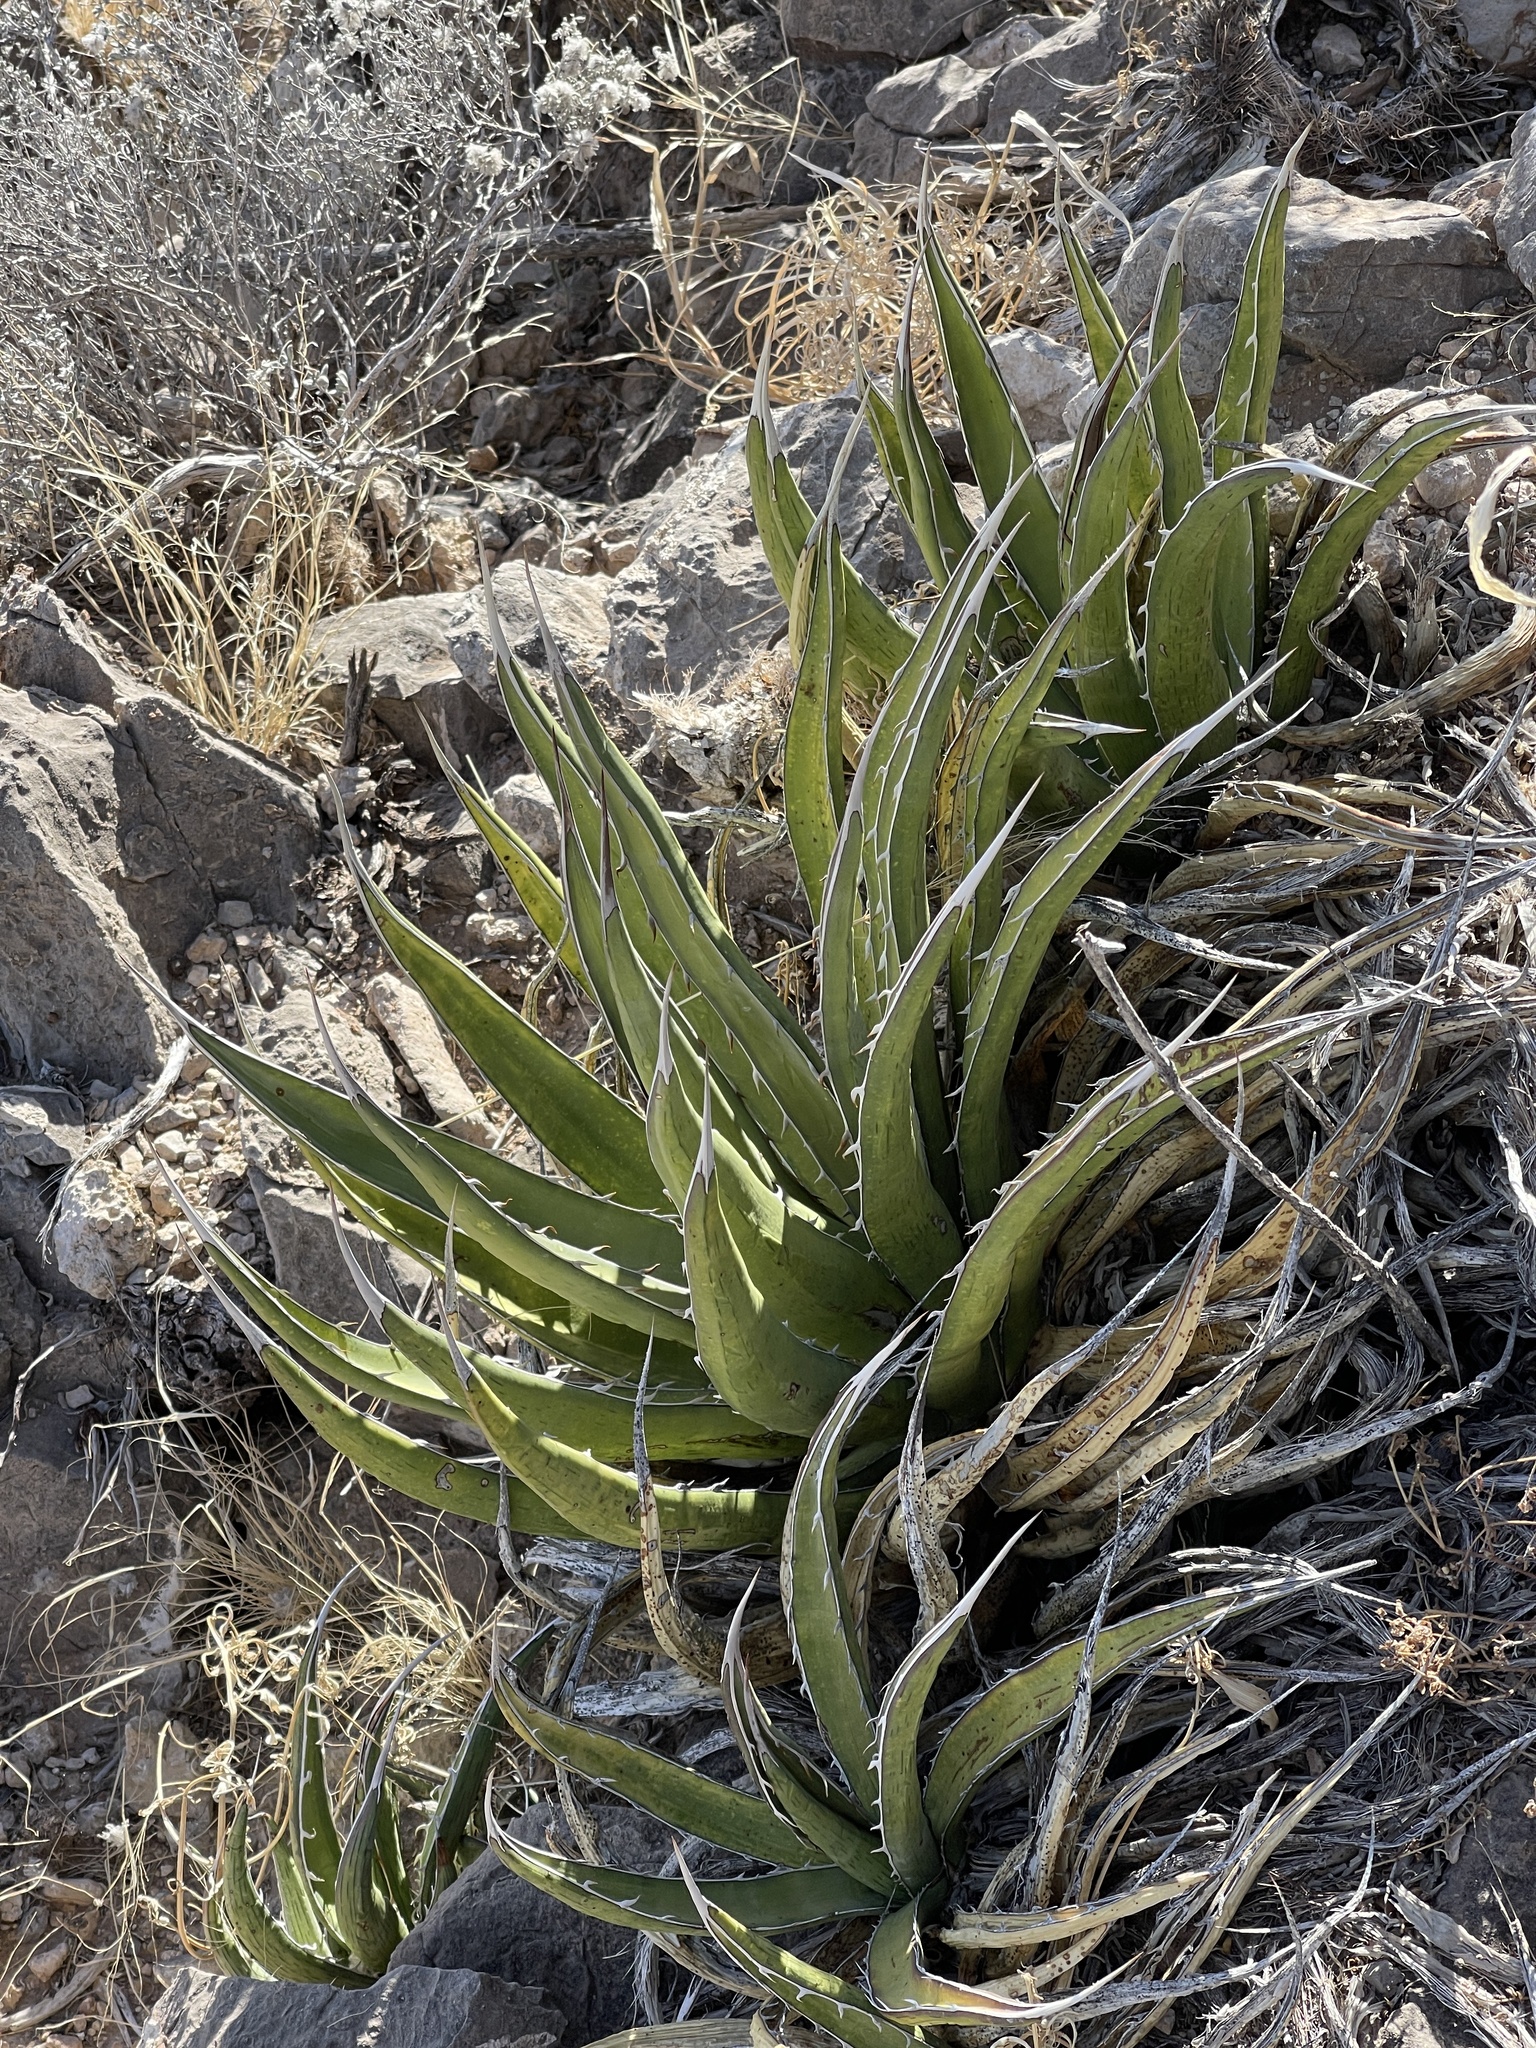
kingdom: Plantae
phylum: Tracheophyta
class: Liliopsida
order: Asparagales
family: Asparagaceae
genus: Agave
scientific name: Agave lechuguilla
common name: Lecheguilla agave
